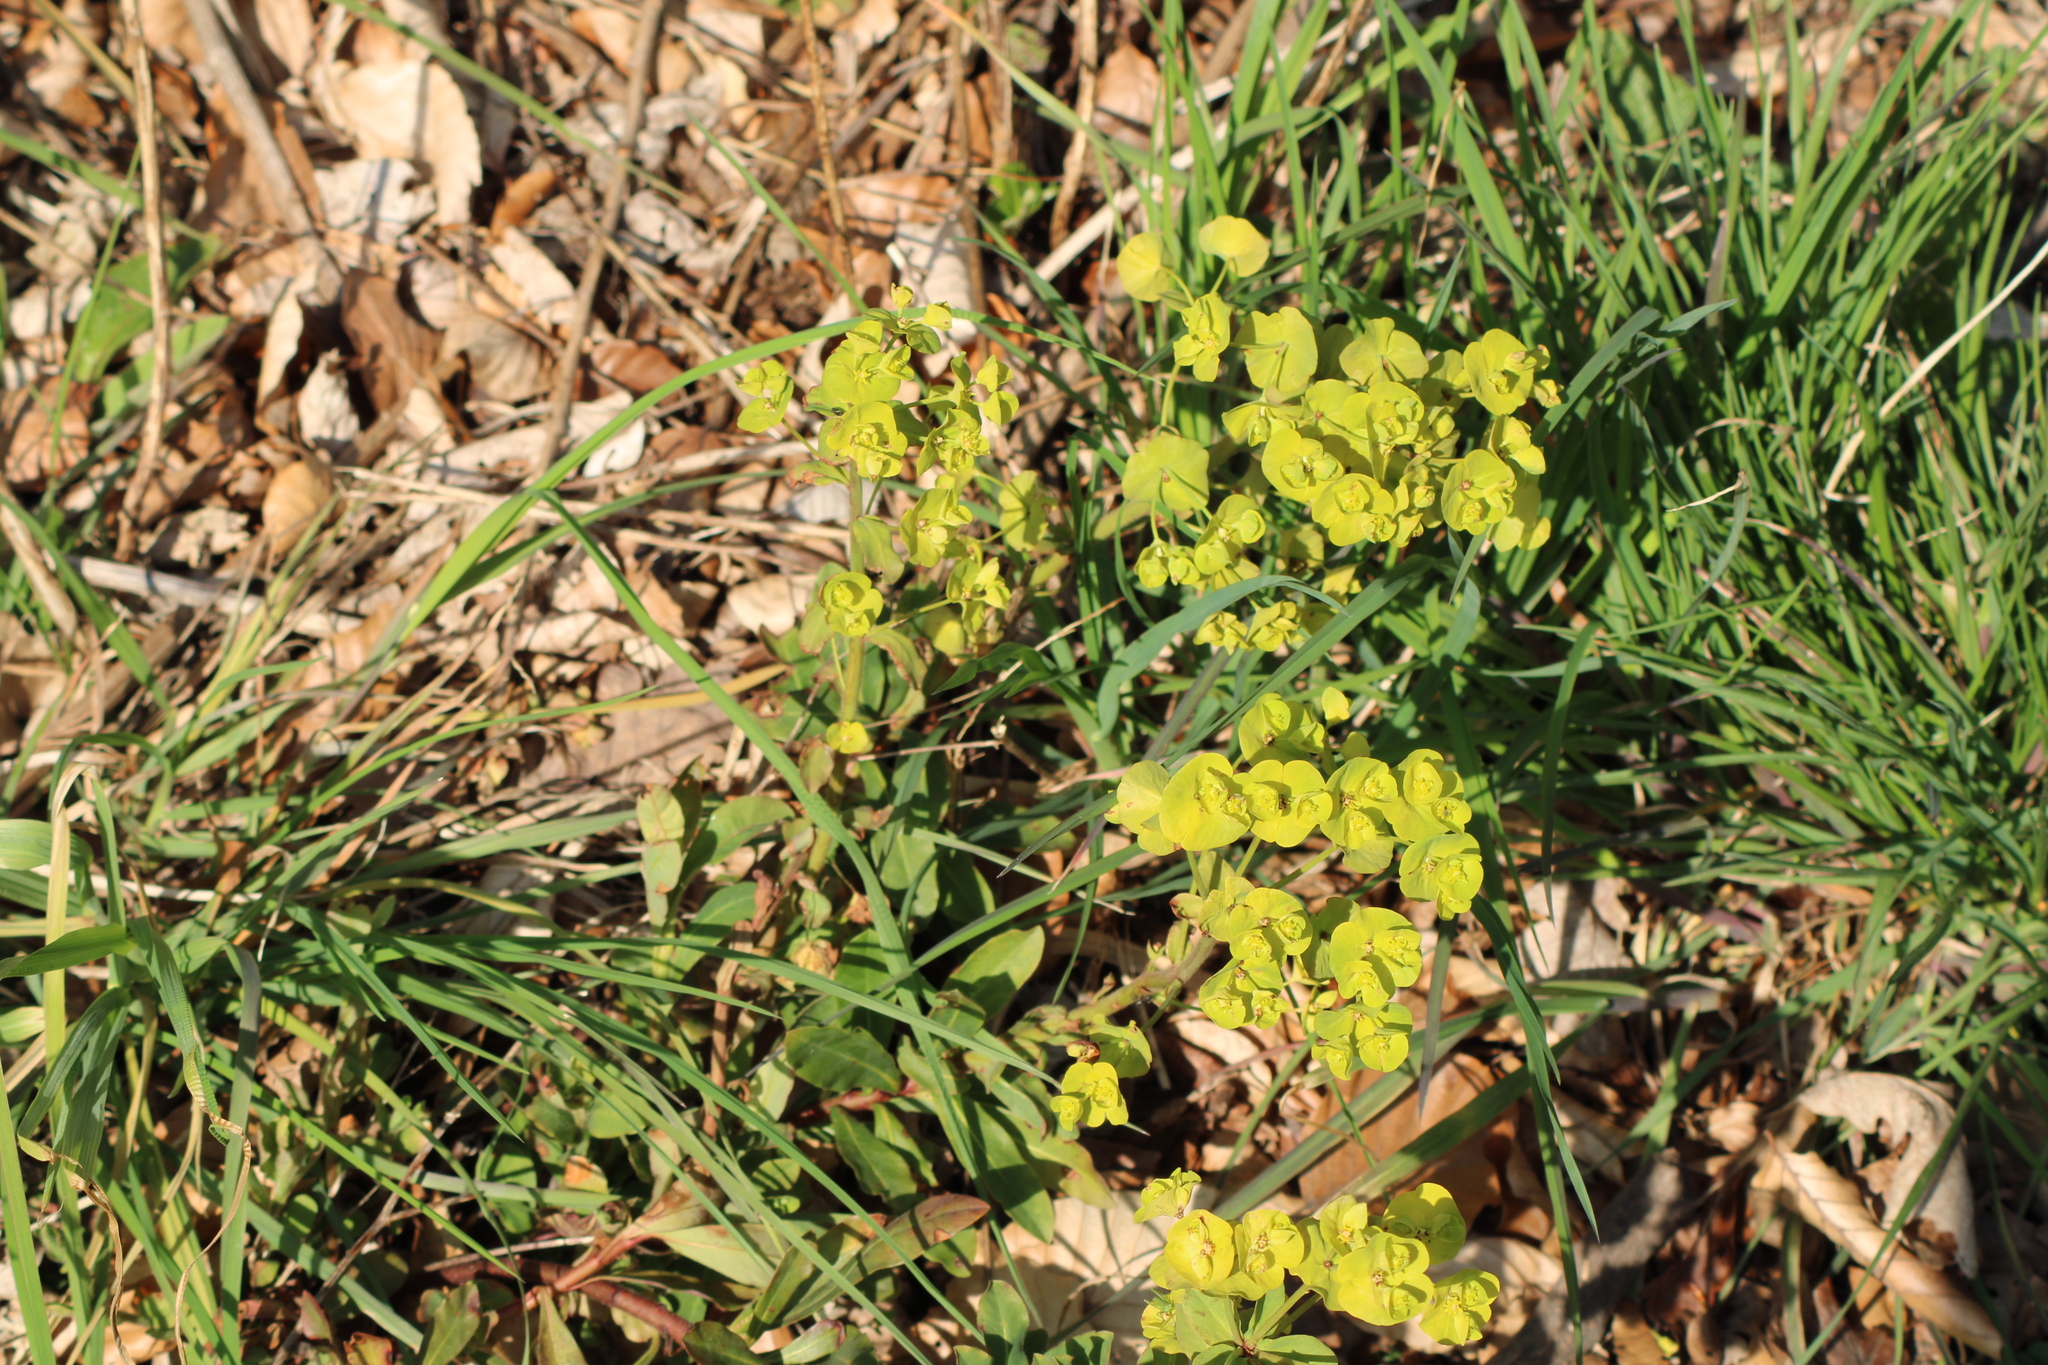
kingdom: Plantae
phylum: Tracheophyta
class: Magnoliopsida
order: Malpighiales
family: Euphorbiaceae
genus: Euphorbia
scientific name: Euphorbia amygdaloides
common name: Wood spurge
